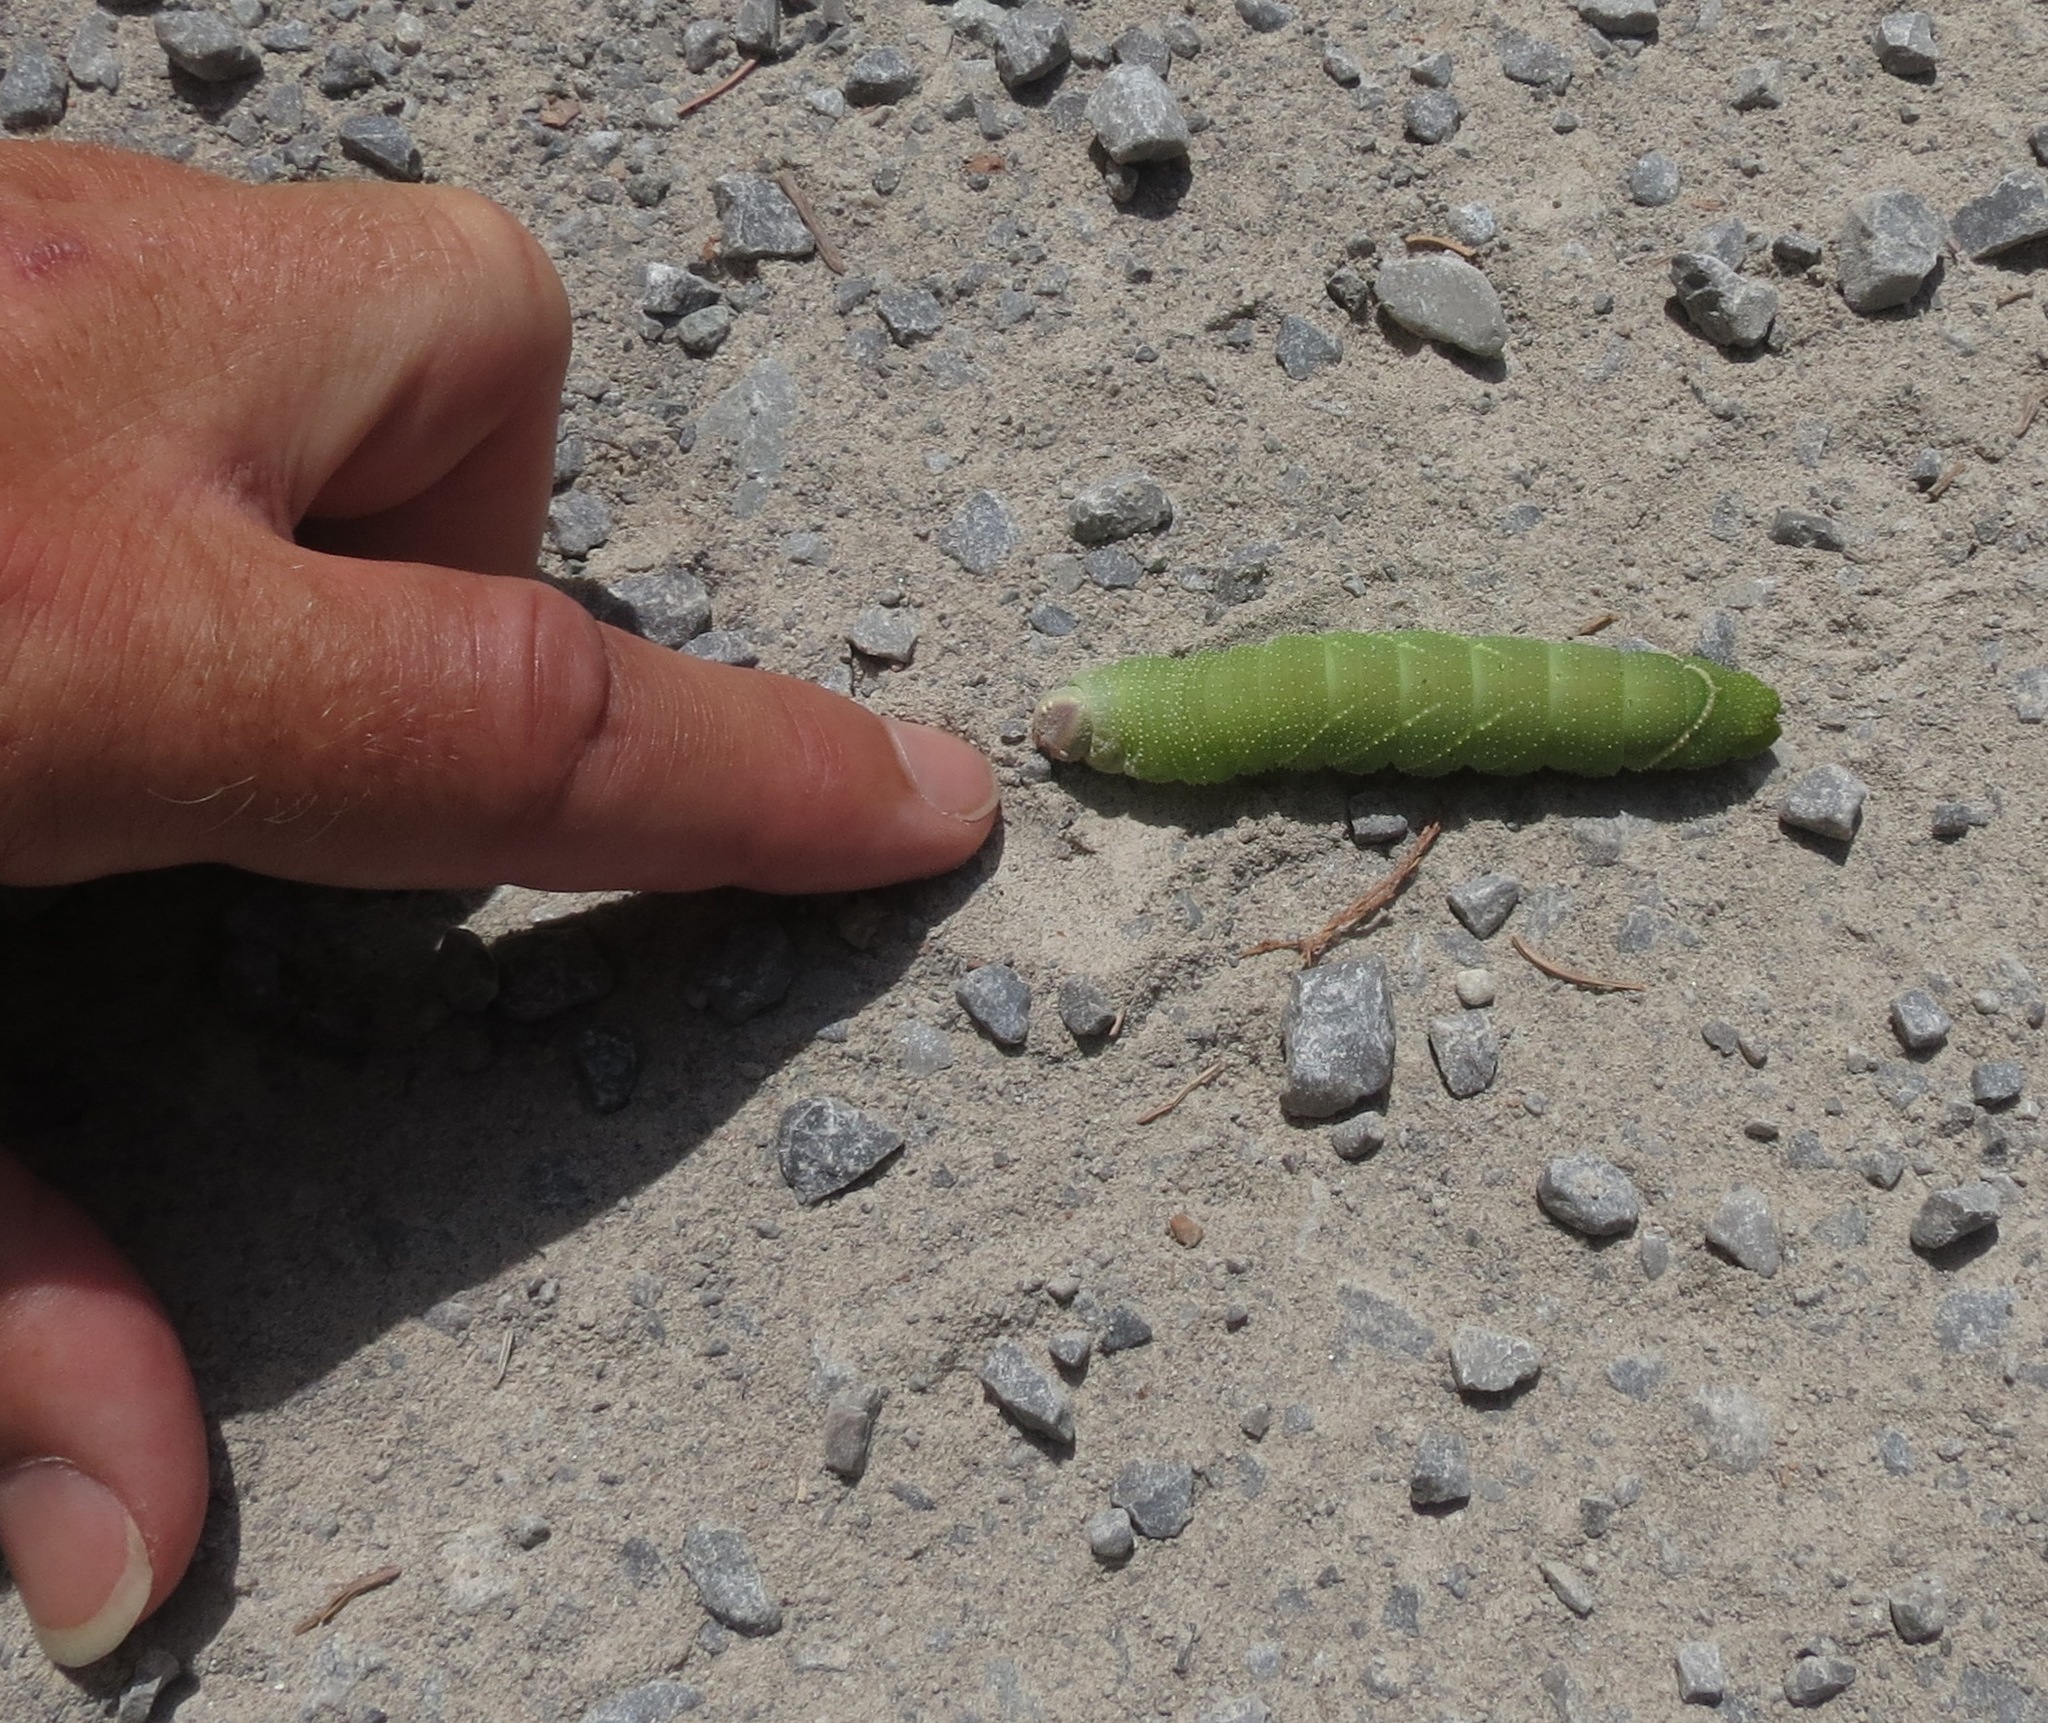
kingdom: Animalia
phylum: Arthropoda
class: Insecta
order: Lepidoptera
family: Sphingidae
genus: Pachysphinx
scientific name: Pachysphinx modesta
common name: Big poplar sphinx
